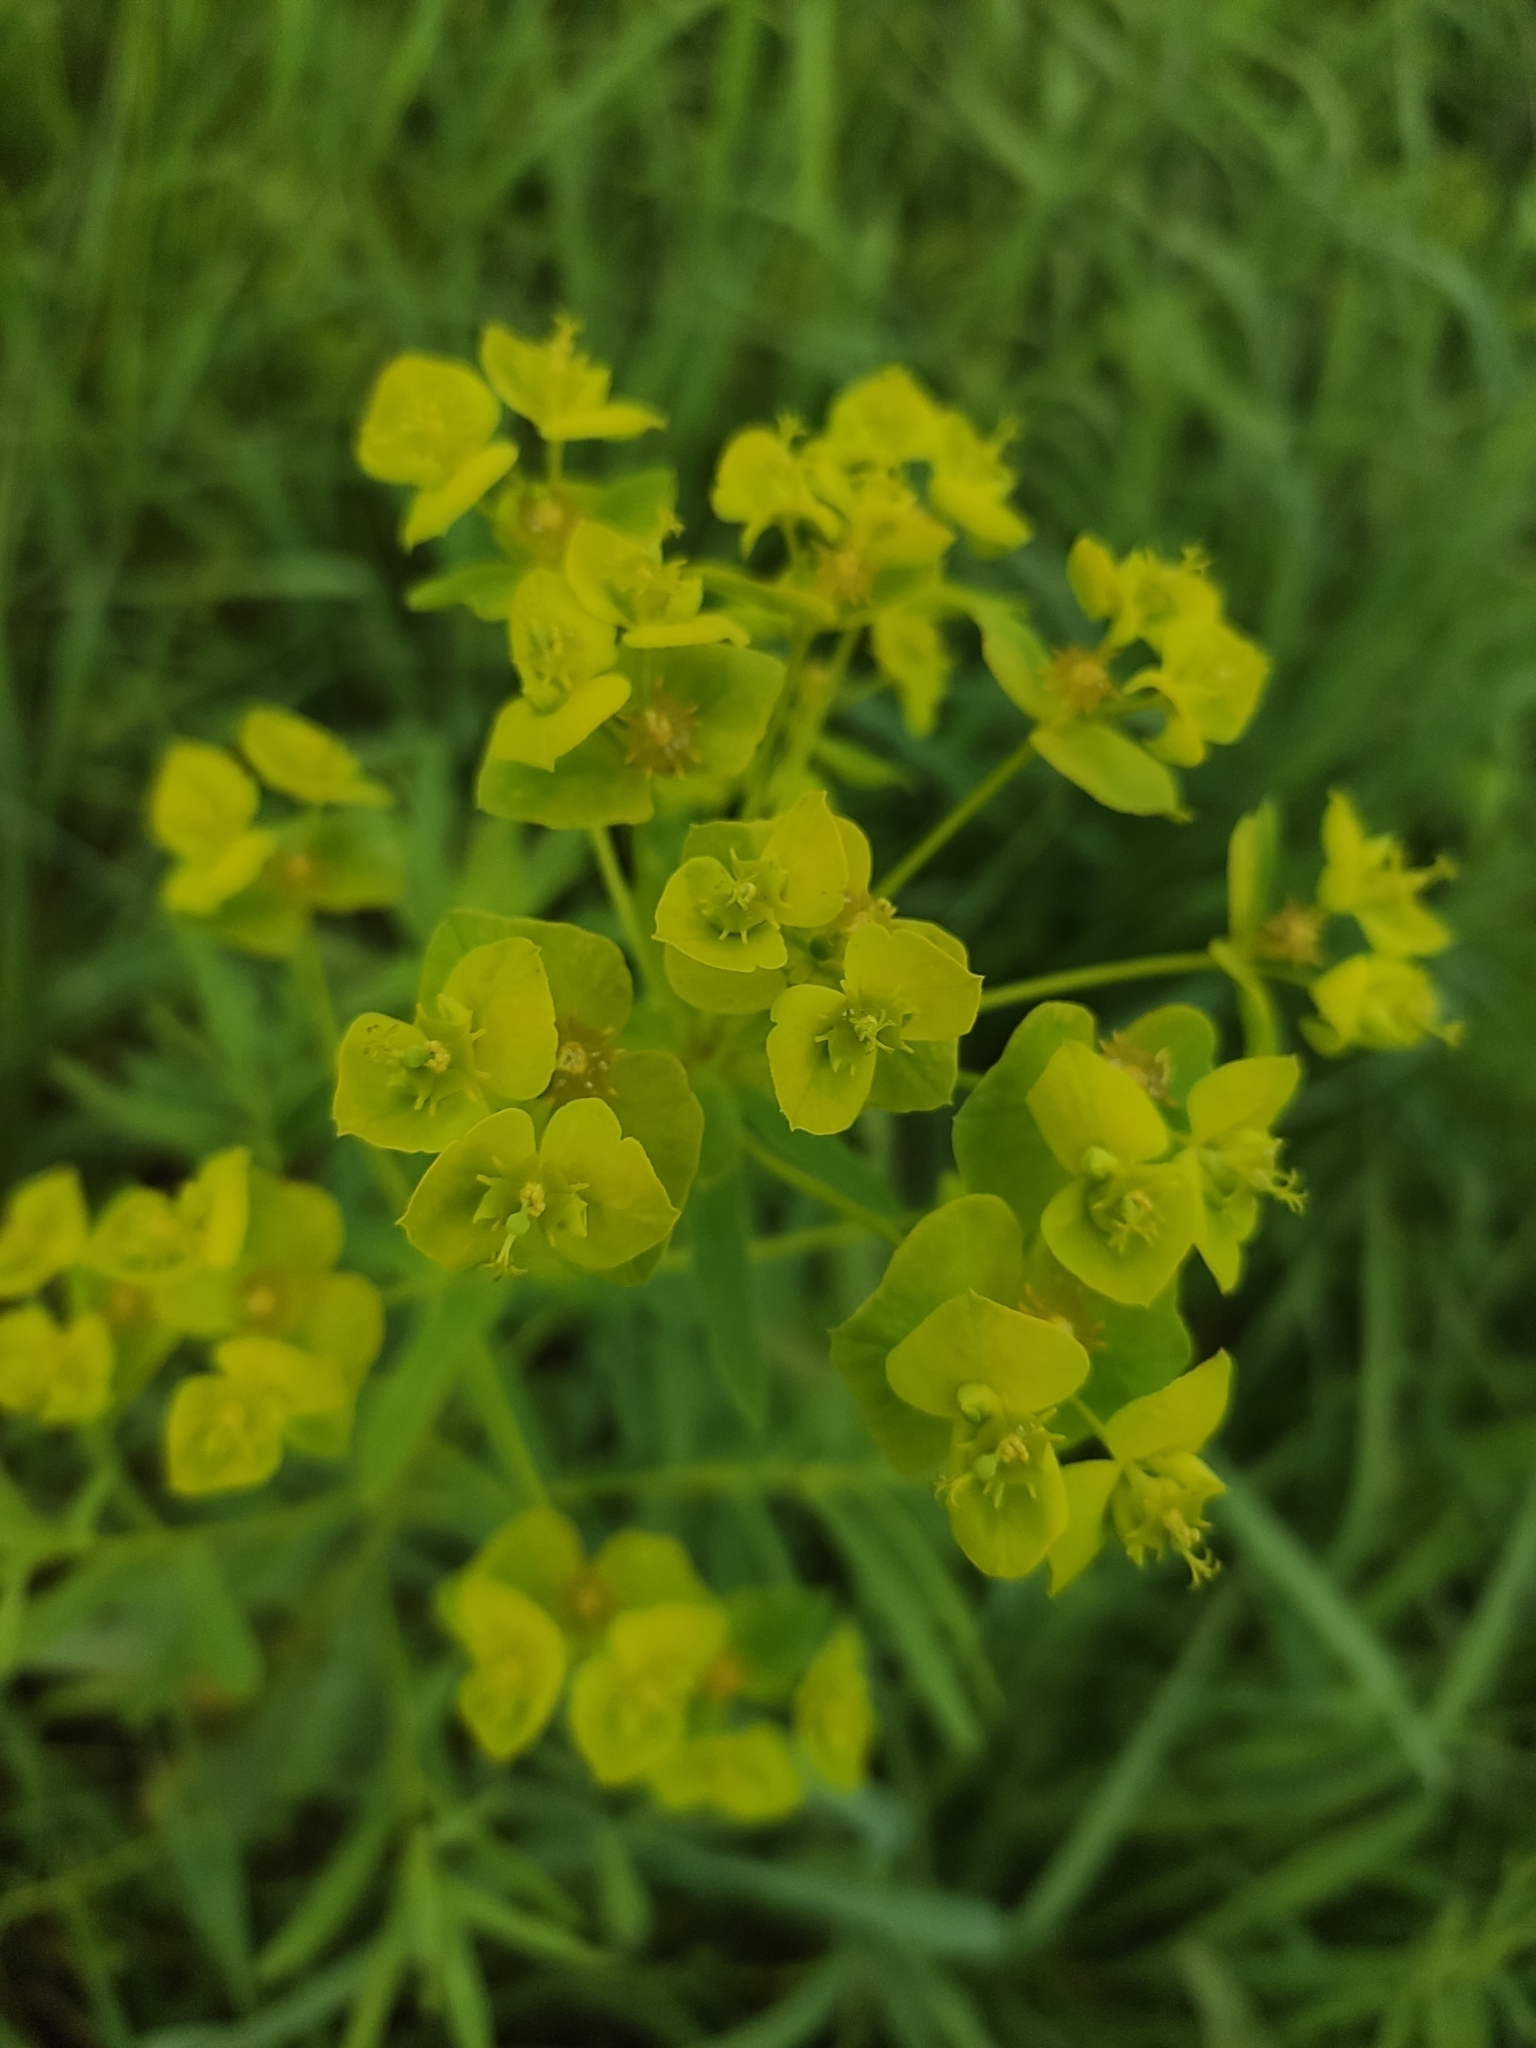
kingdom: Plantae
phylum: Tracheophyta
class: Magnoliopsida
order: Malpighiales
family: Euphorbiaceae
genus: Euphorbia
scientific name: Euphorbia virgata
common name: Leafy spurge
